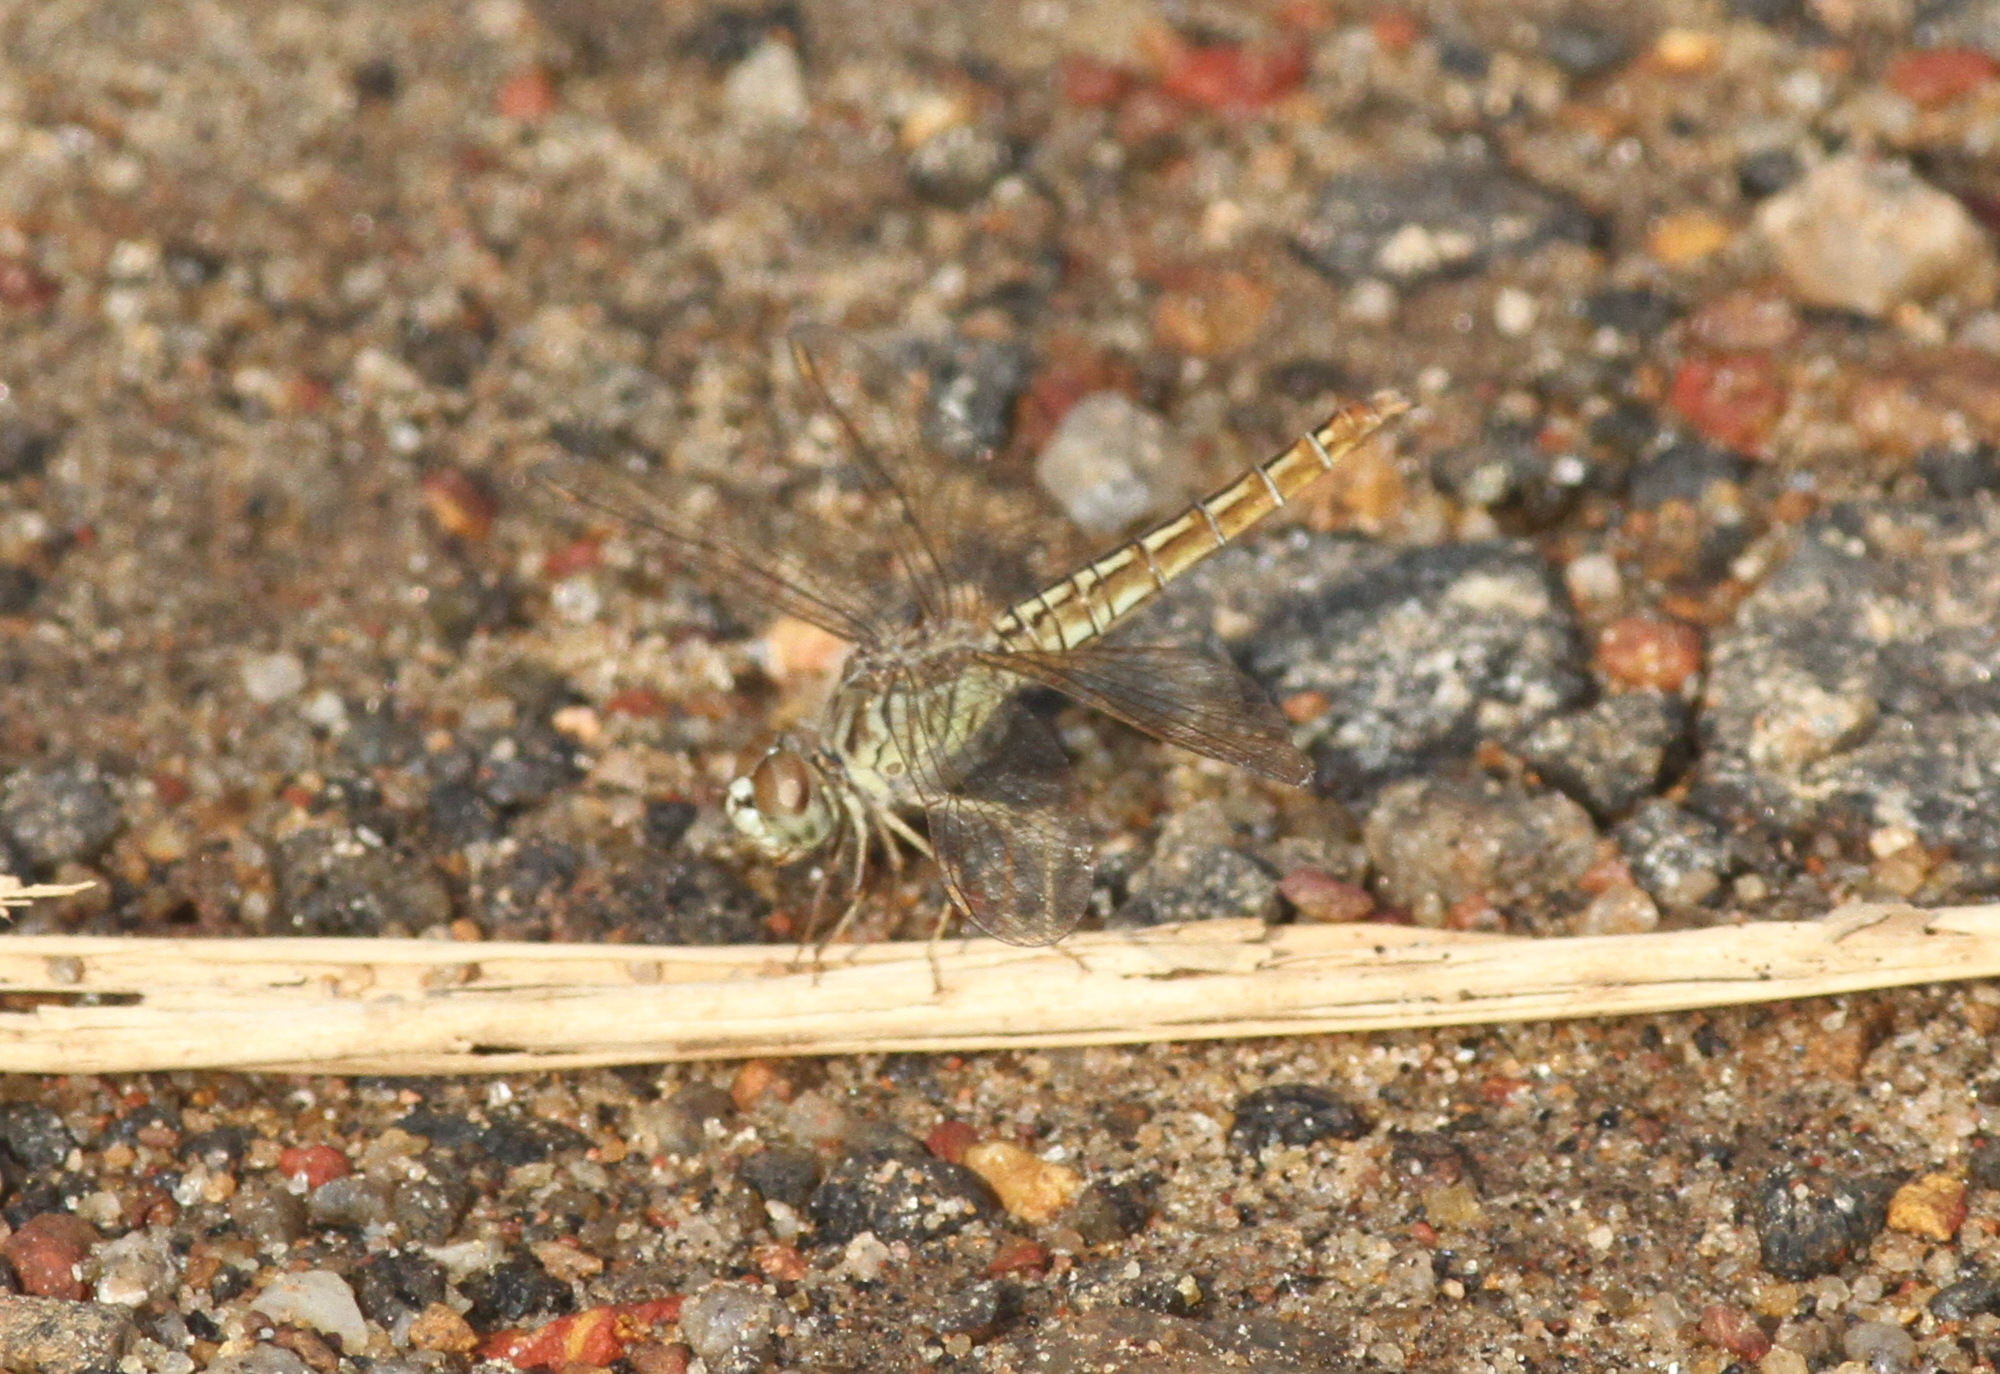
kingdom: Animalia
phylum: Arthropoda
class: Insecta
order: Odonata
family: Libellulidae
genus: Brachythemis
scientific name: Brachythemis contaminata
